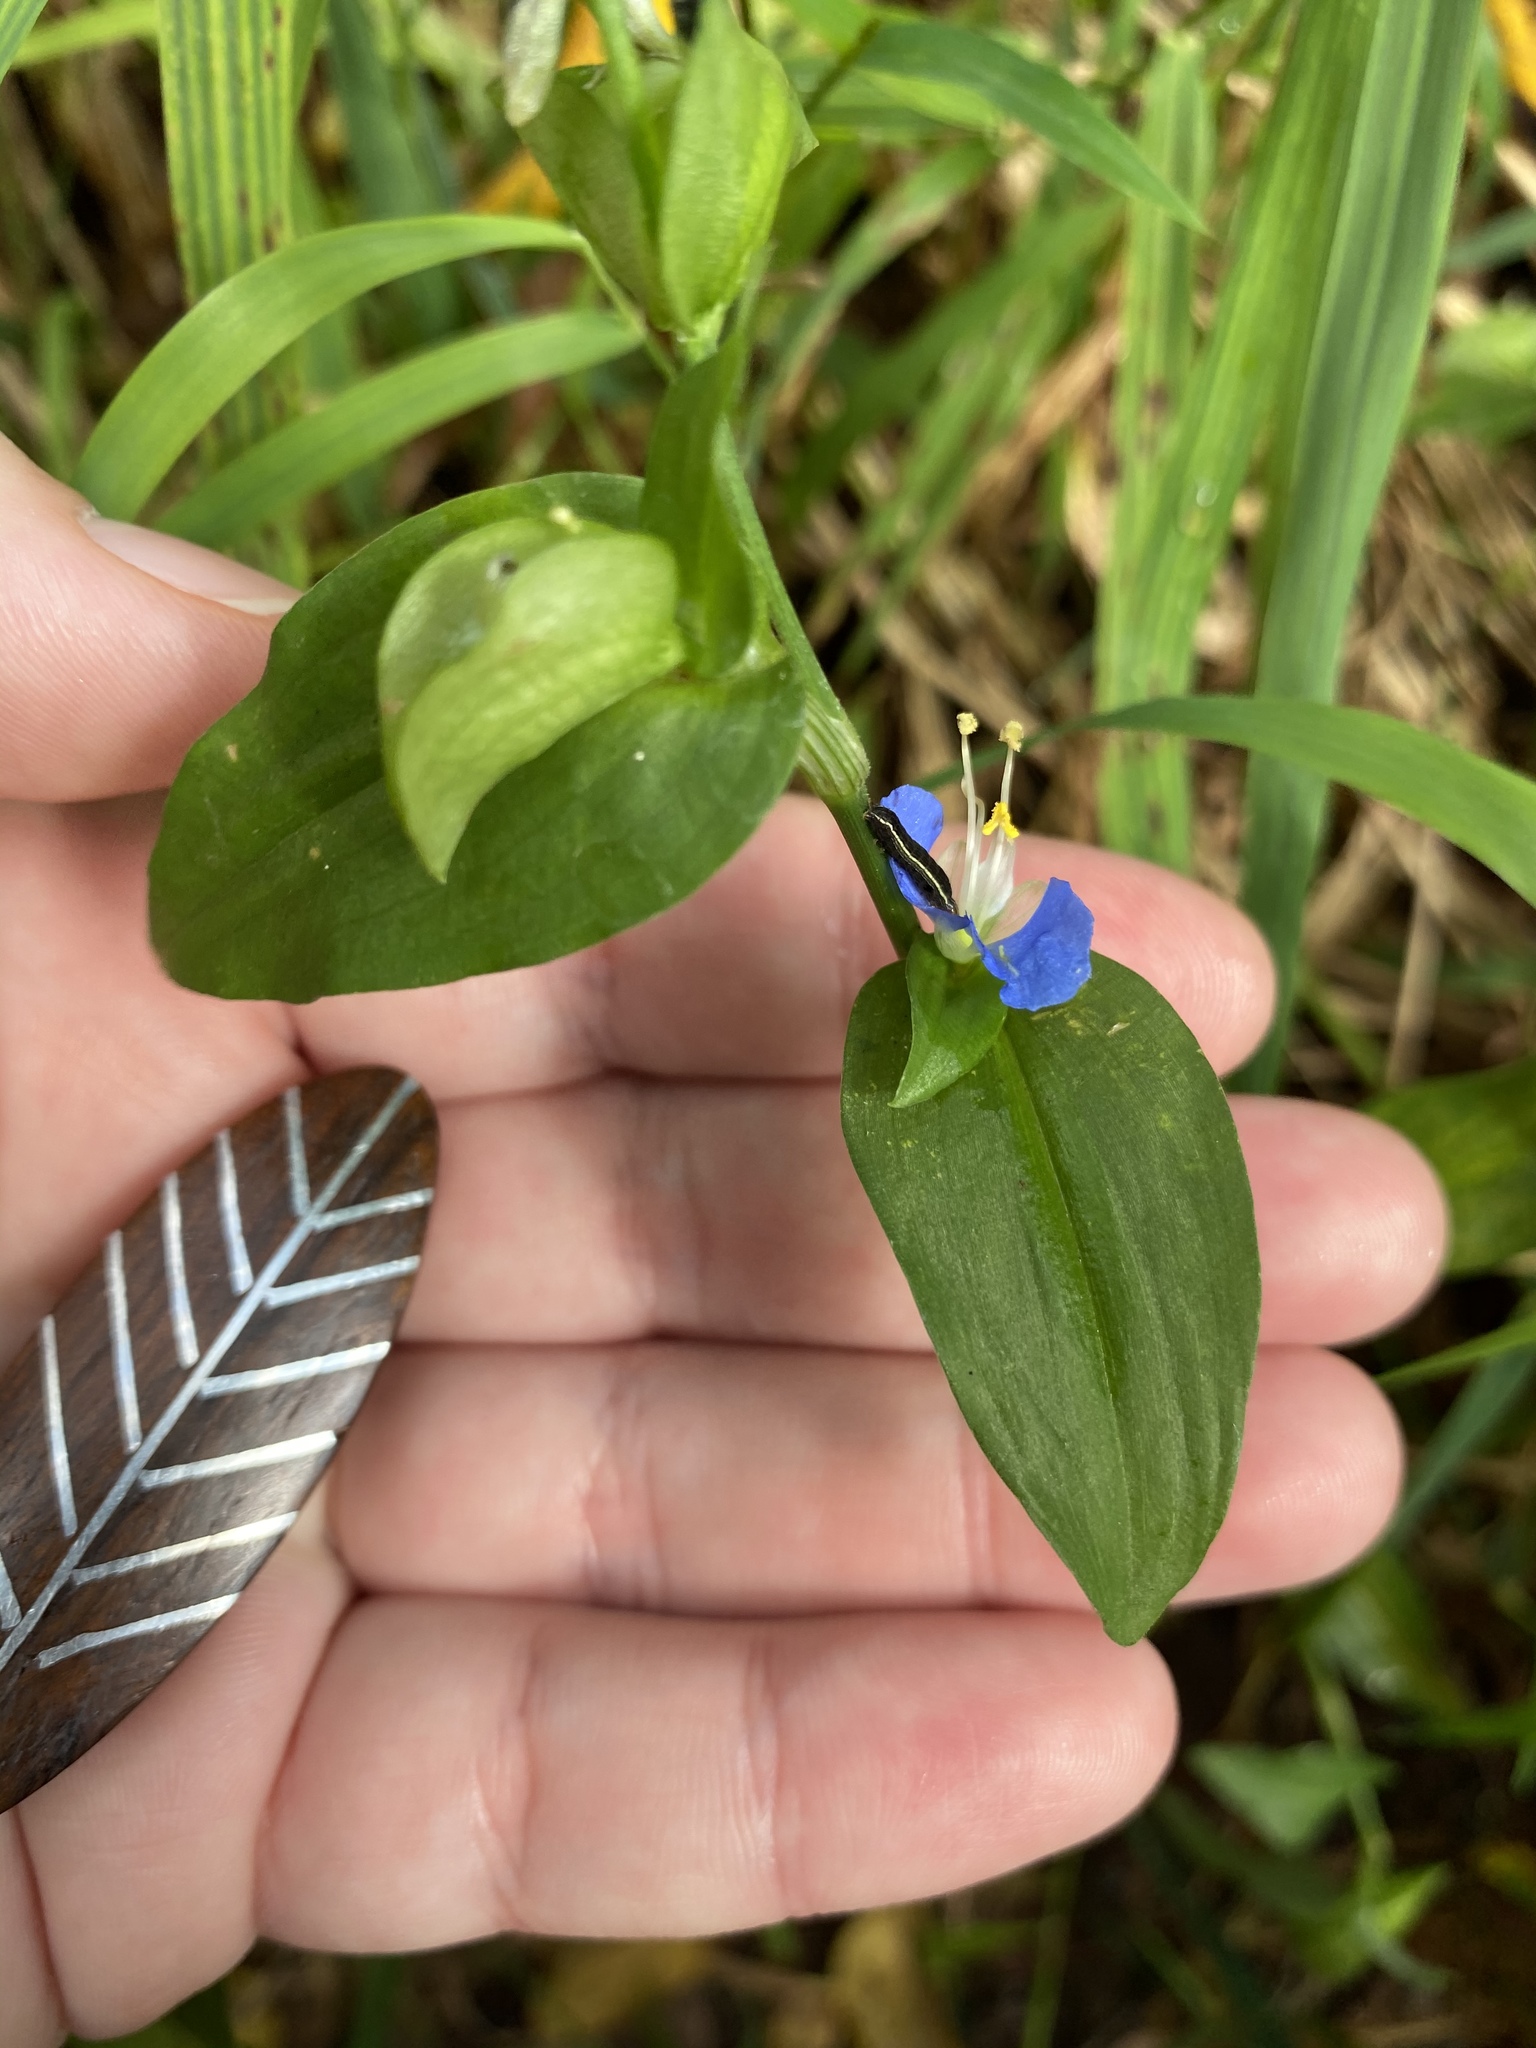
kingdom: Plantae
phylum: Tracheophyta
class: Liliopsida
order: Commelinales
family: Commelinaceae
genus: Commelina
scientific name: Commelina communis
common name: Asiatic dayflower
